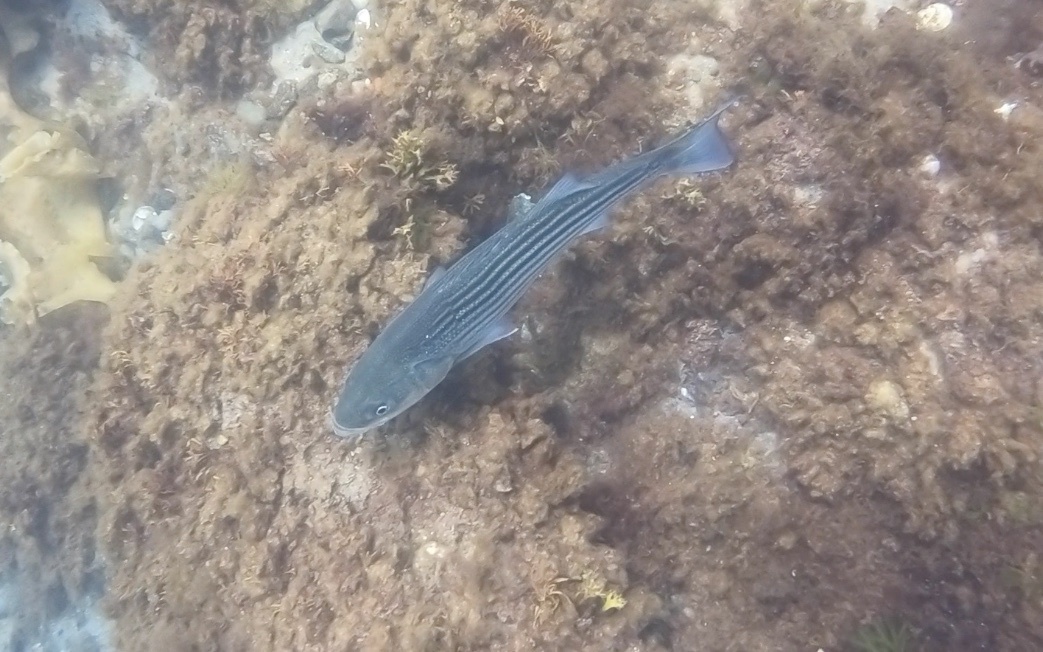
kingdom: Animalia
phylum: Chordata
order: Perciformes
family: Moronidae
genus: Morone
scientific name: Morone saxatilis
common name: Striped bass
